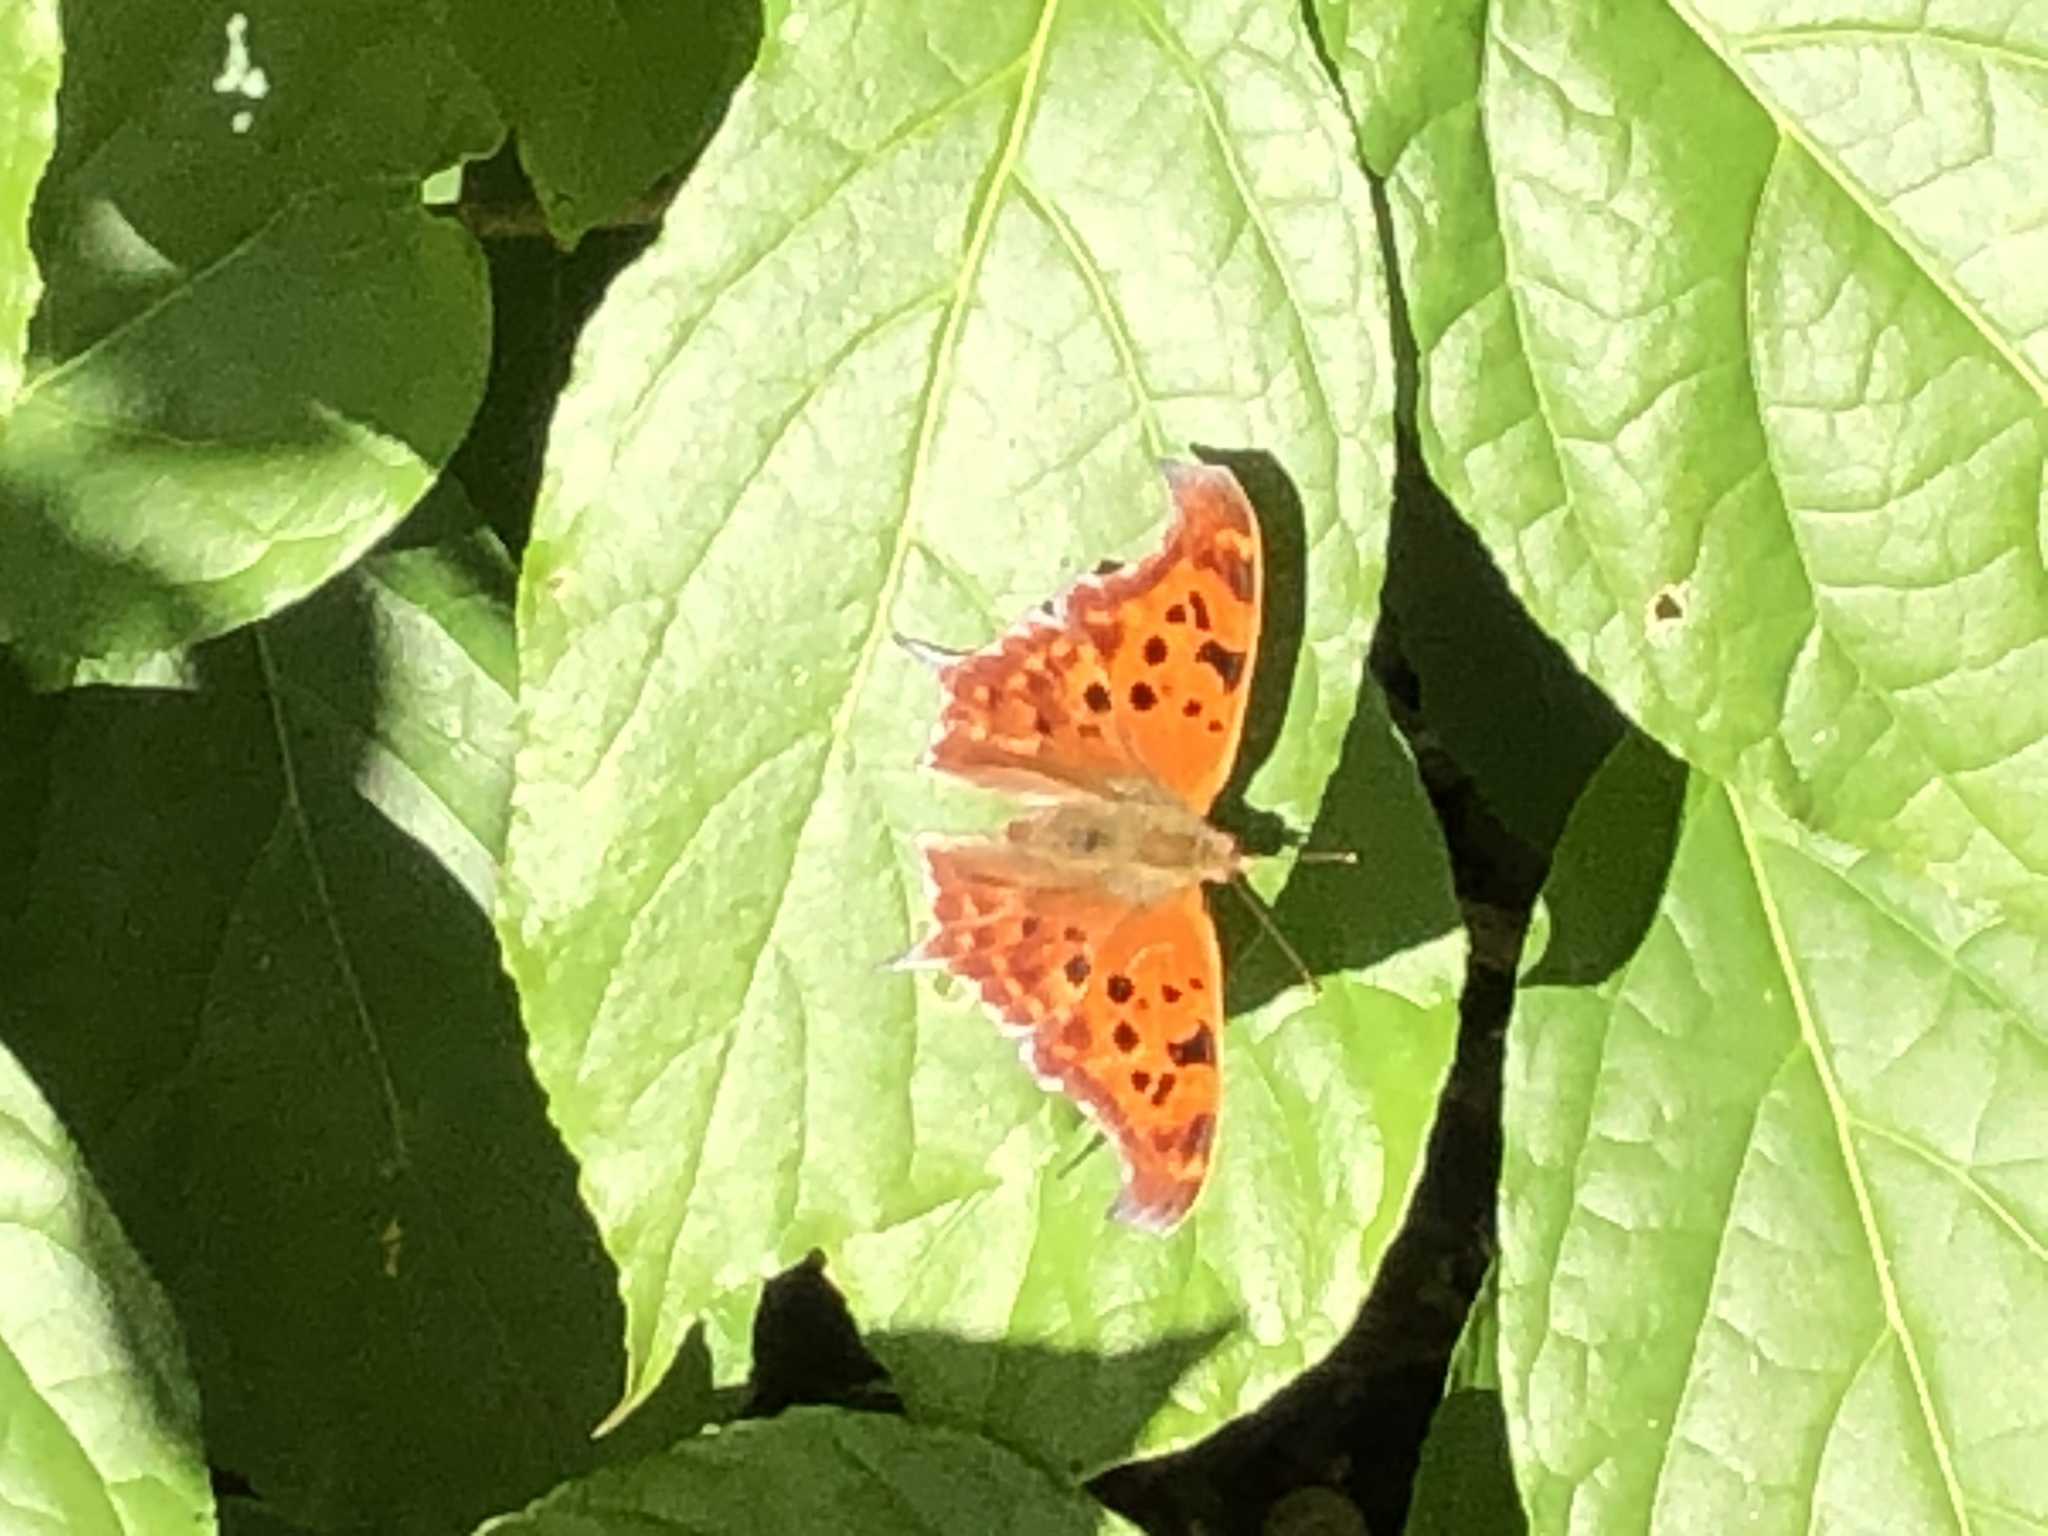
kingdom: Animalia
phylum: Arthropoda
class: Insecta
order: Lepidoptera
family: Nymphalidae
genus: Polygonia
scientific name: Polygonia interrogationis
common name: Question mark
